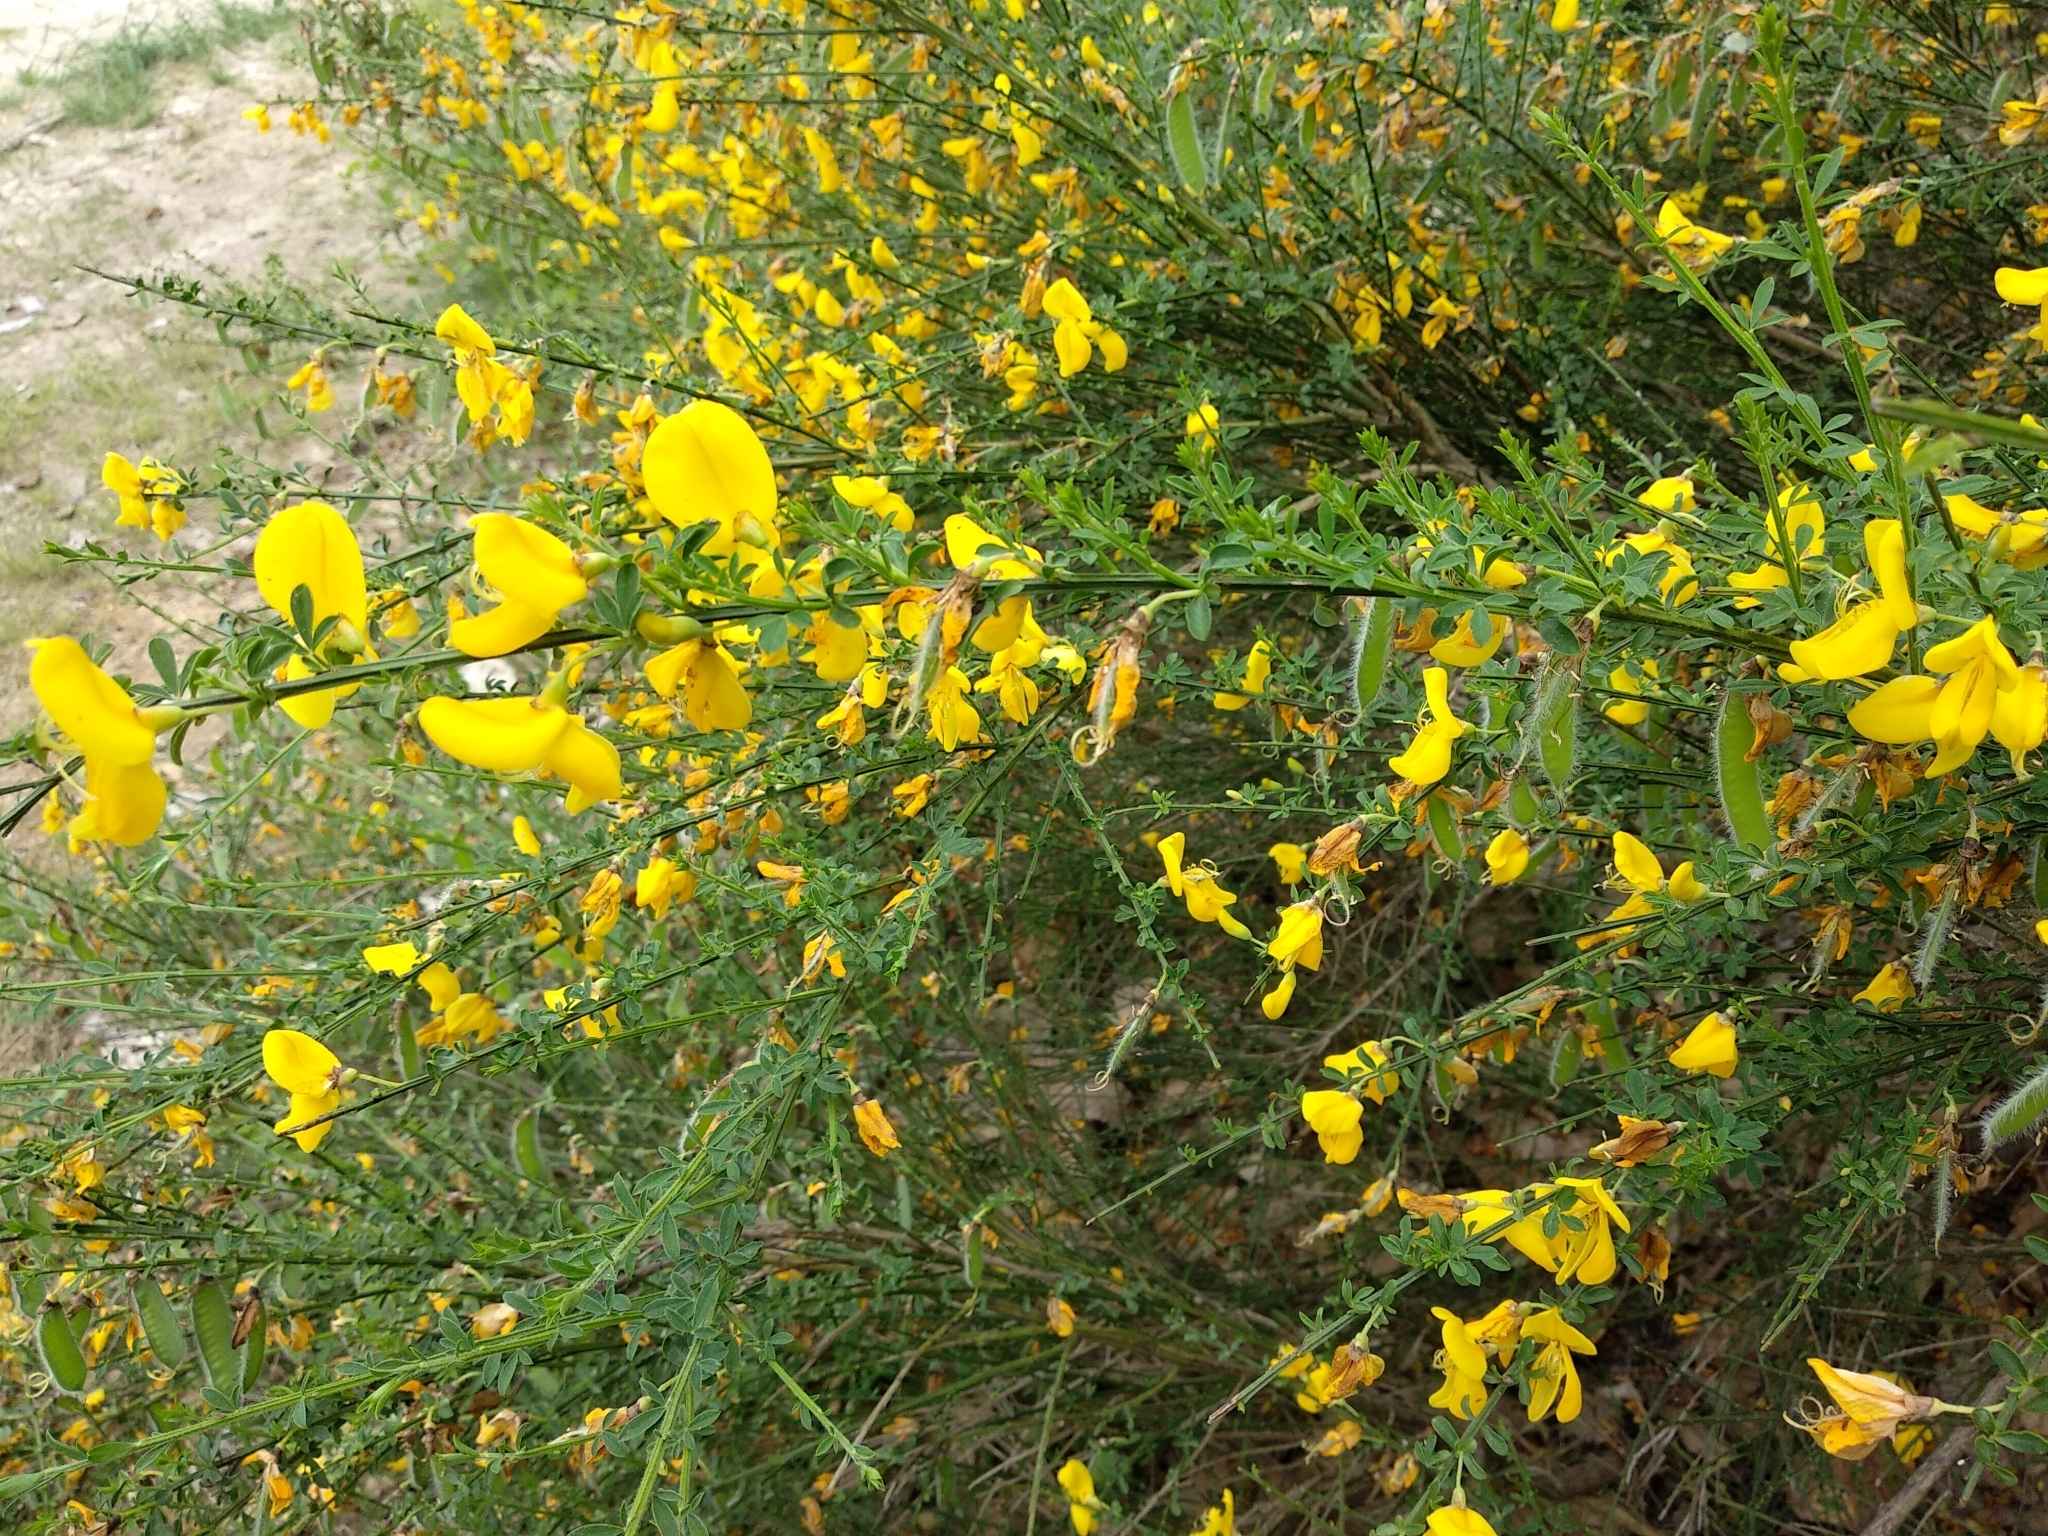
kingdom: Plantae
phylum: Tracheophyta
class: Magnoliopsida
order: Fabales
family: Fabaceae
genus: Cytisus
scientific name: Cytisus scoparius
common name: Scotch broom
